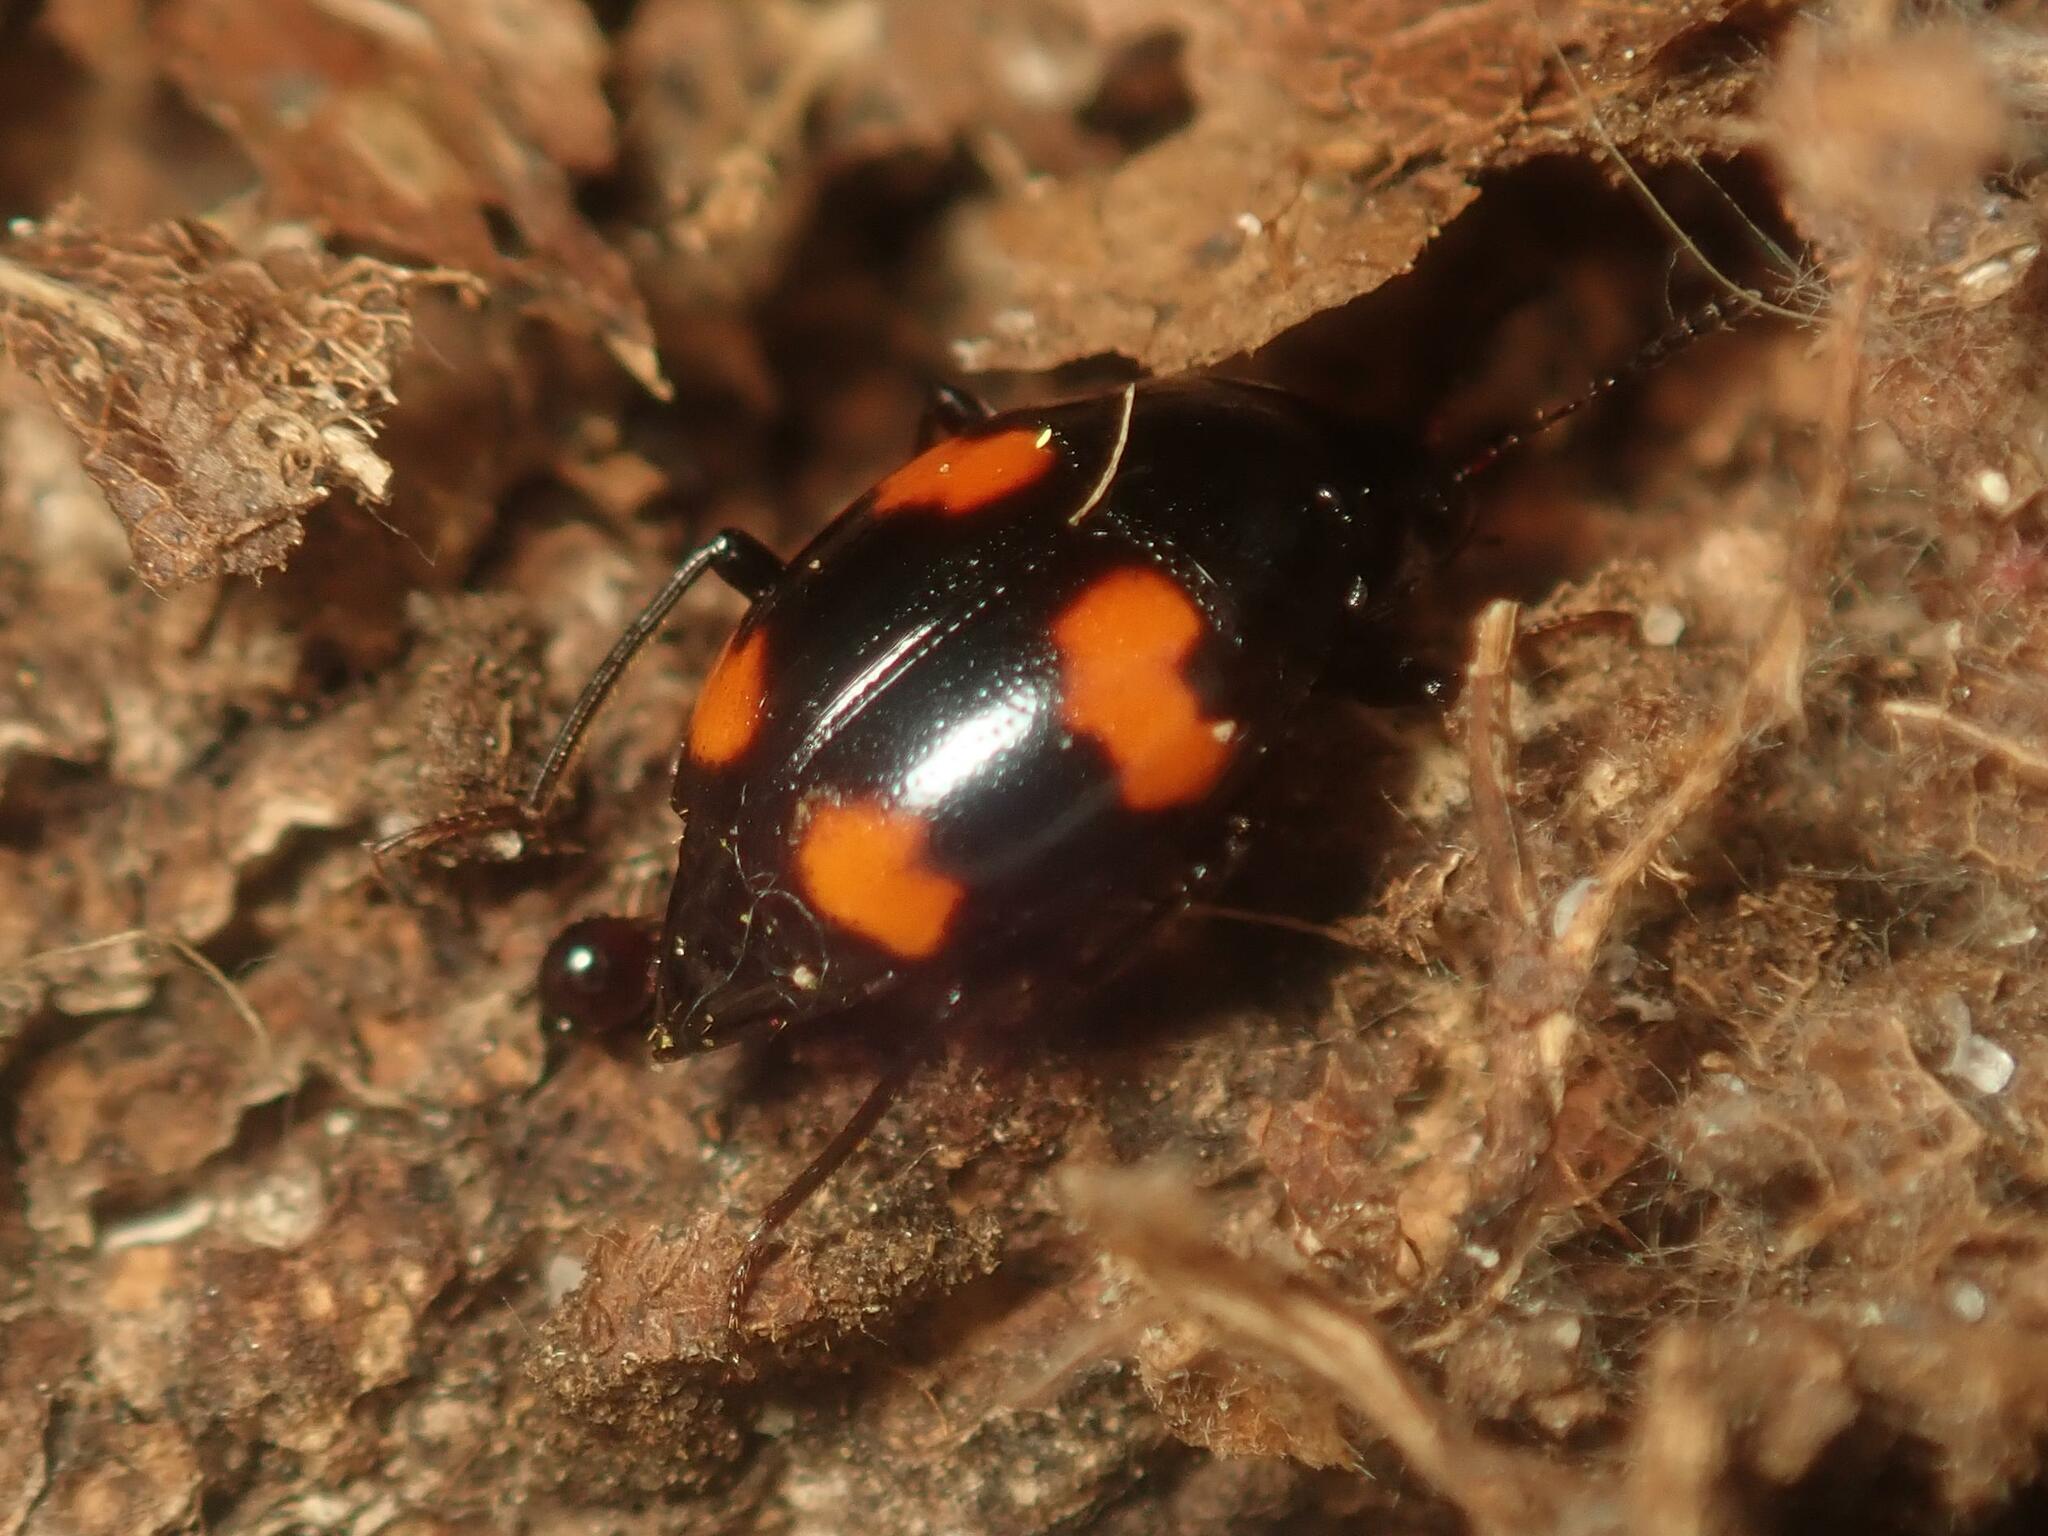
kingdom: Animalia
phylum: Arthropoda
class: Insecta
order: Coleoptera
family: Staphylinidae
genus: Scaphidium
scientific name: Scaphidium quadrimaculatum
